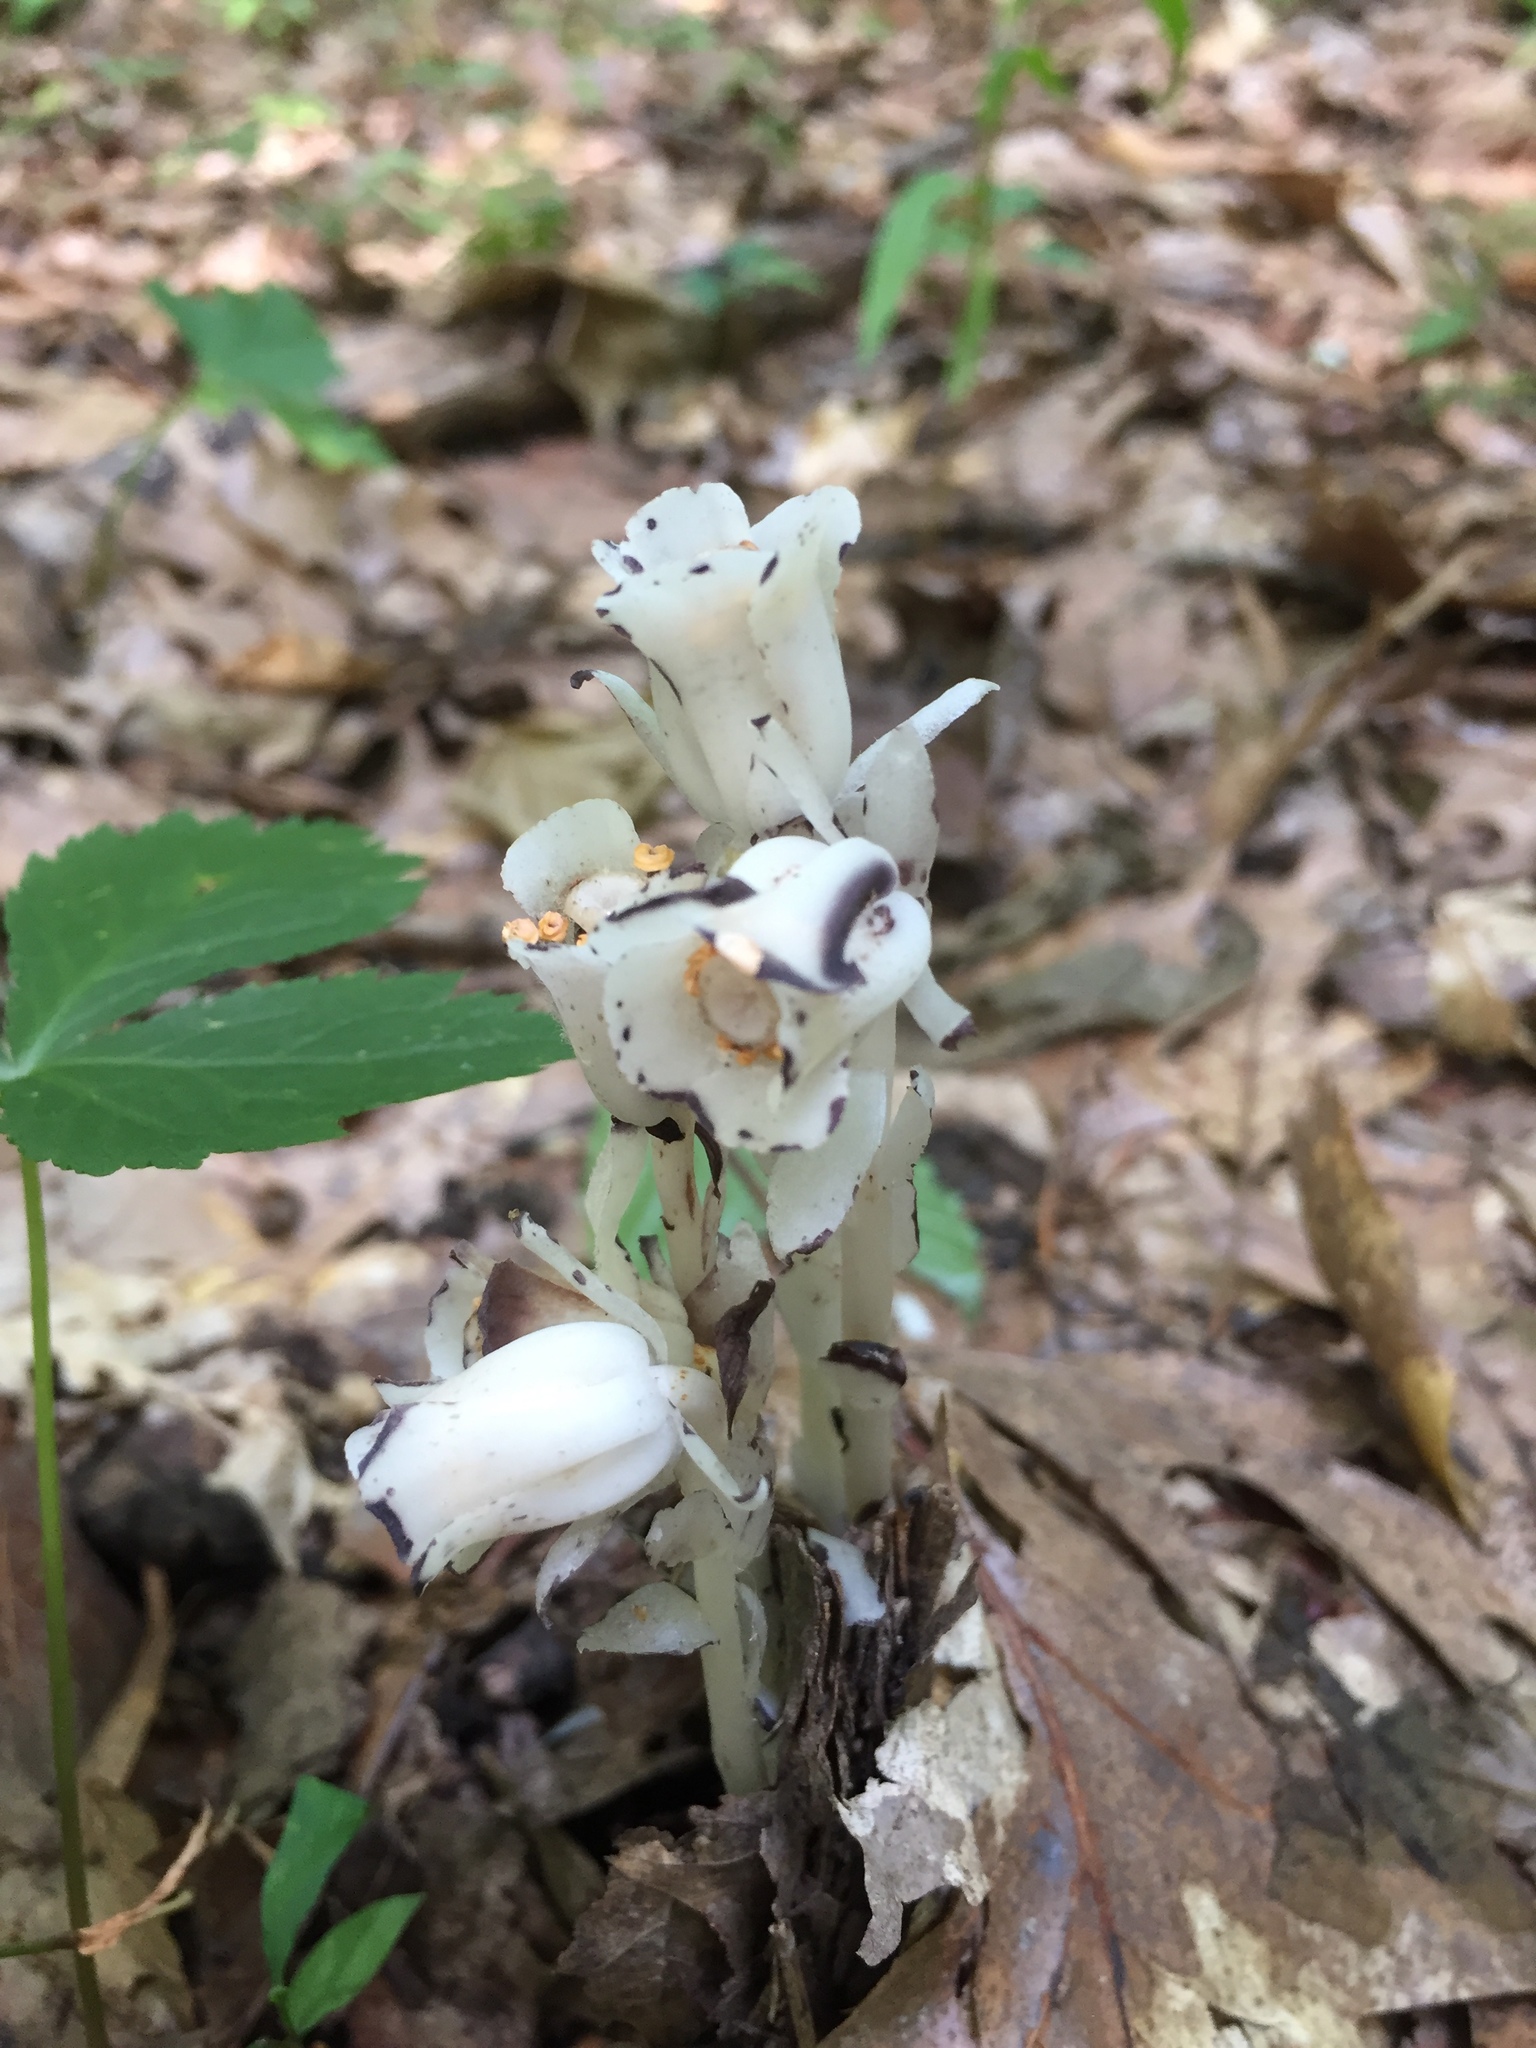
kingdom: Plantae
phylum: Tracheophyta
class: Magnoliopsida
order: Ericales
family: Ericaceae
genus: Monotropa
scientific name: Monotropa uniflora
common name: Convulsion root
